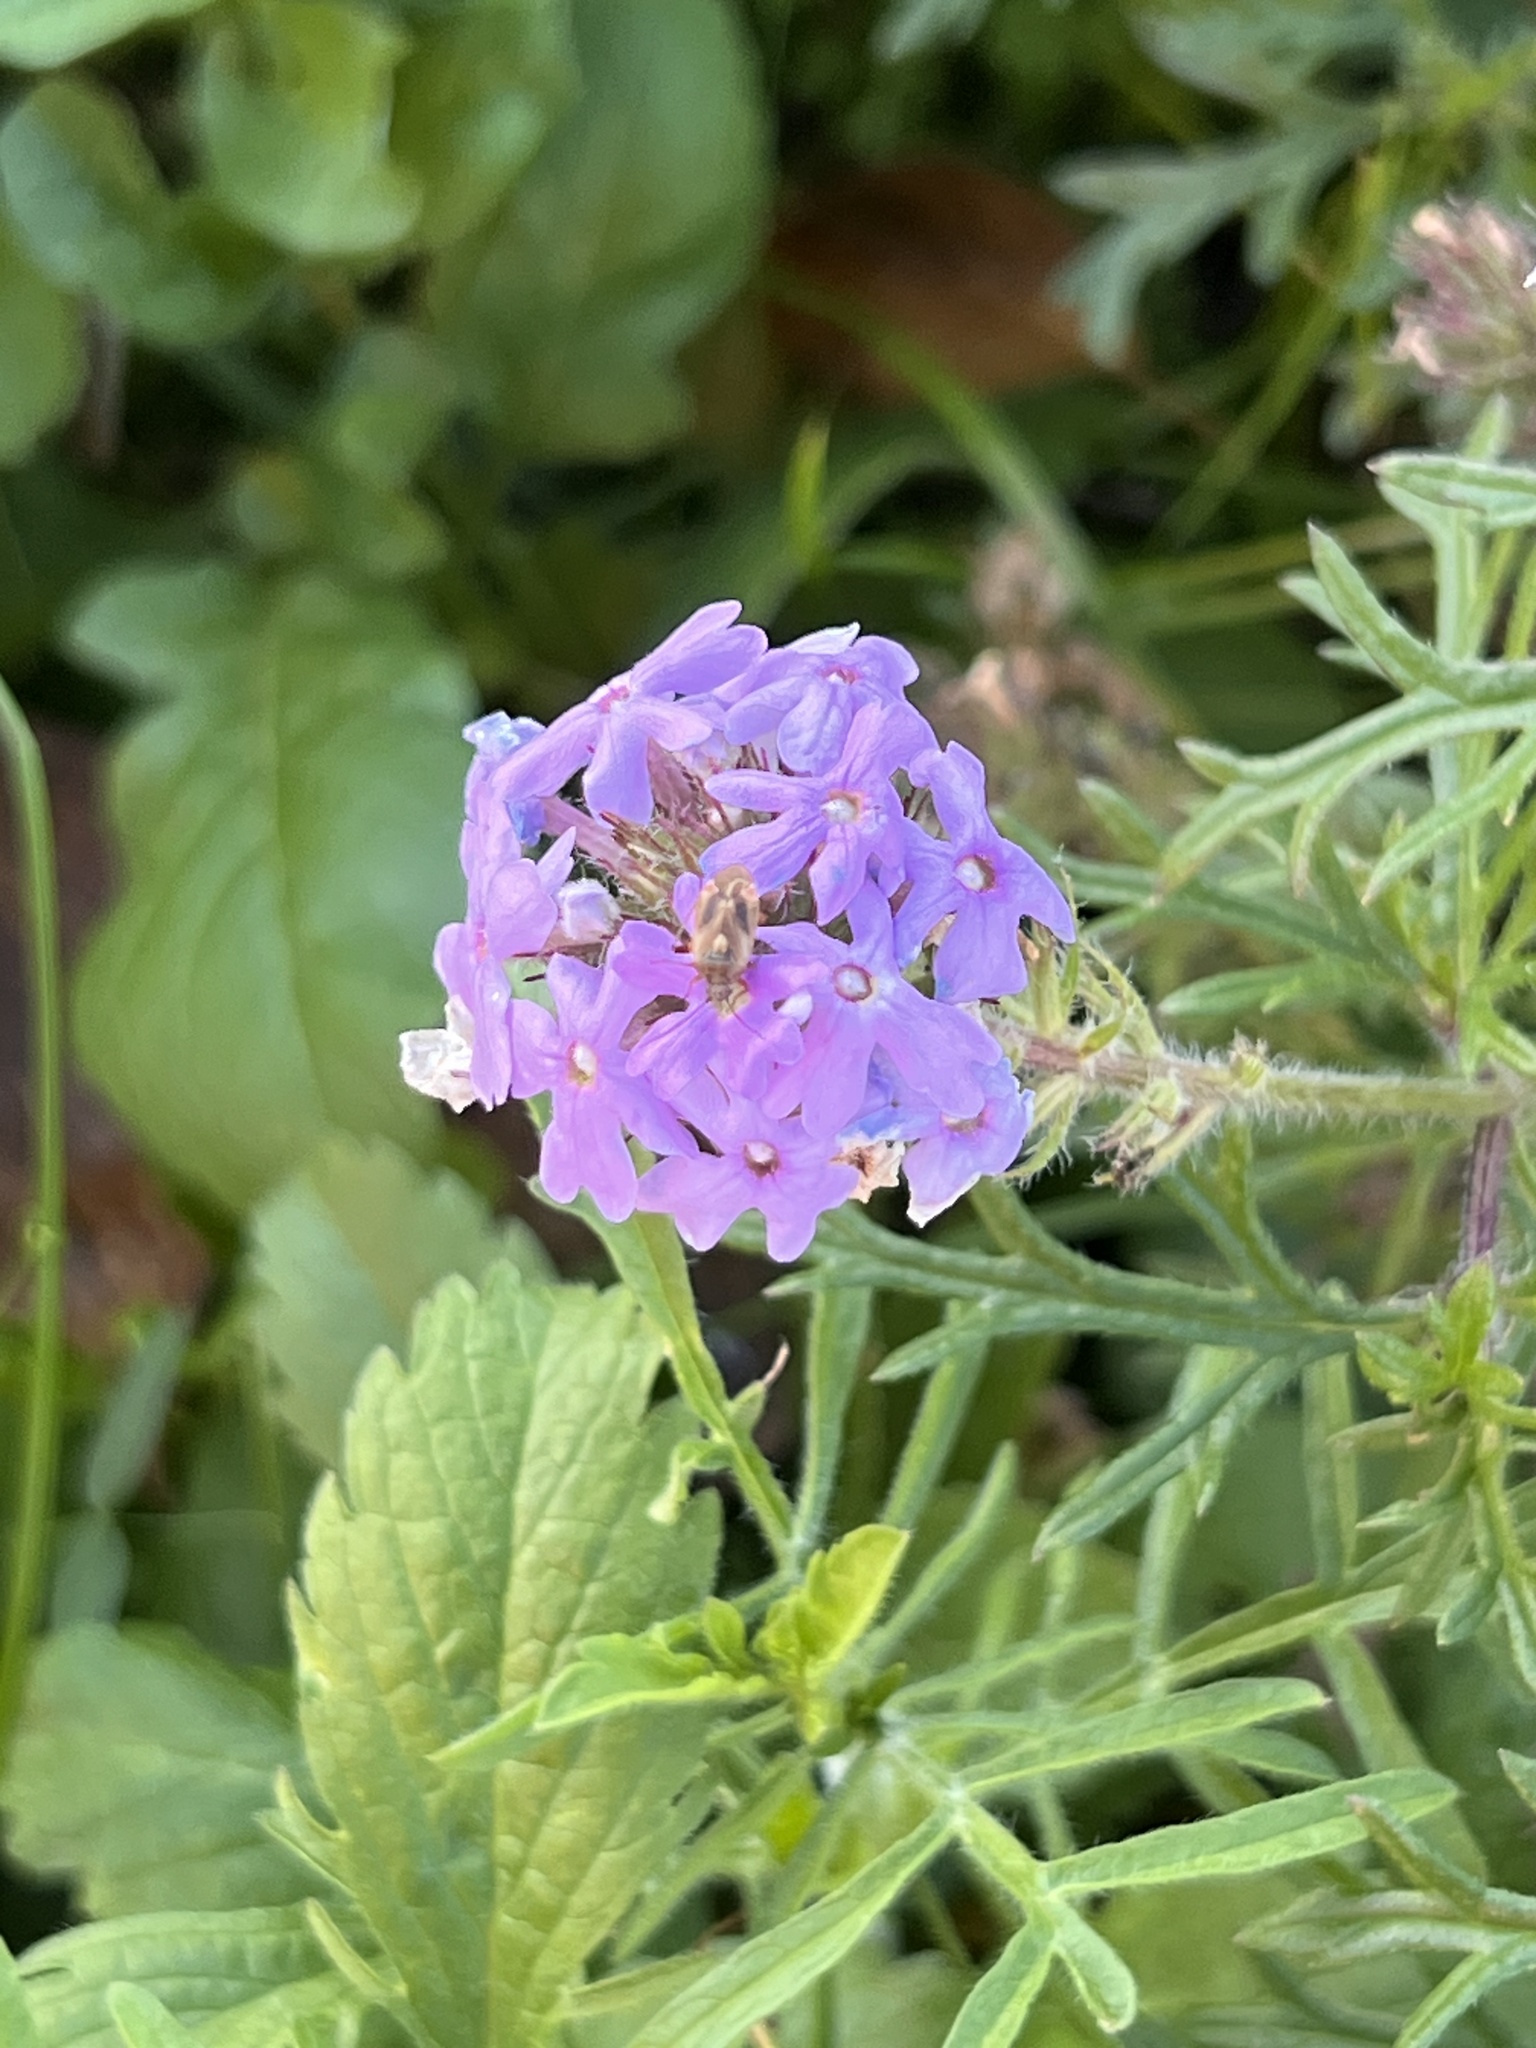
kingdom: Plantae
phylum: Tracheophyta
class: Magnoliopsida
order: Lamiales
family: Verbenaceae
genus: Verbena
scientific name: Verbena bipinnatifida
